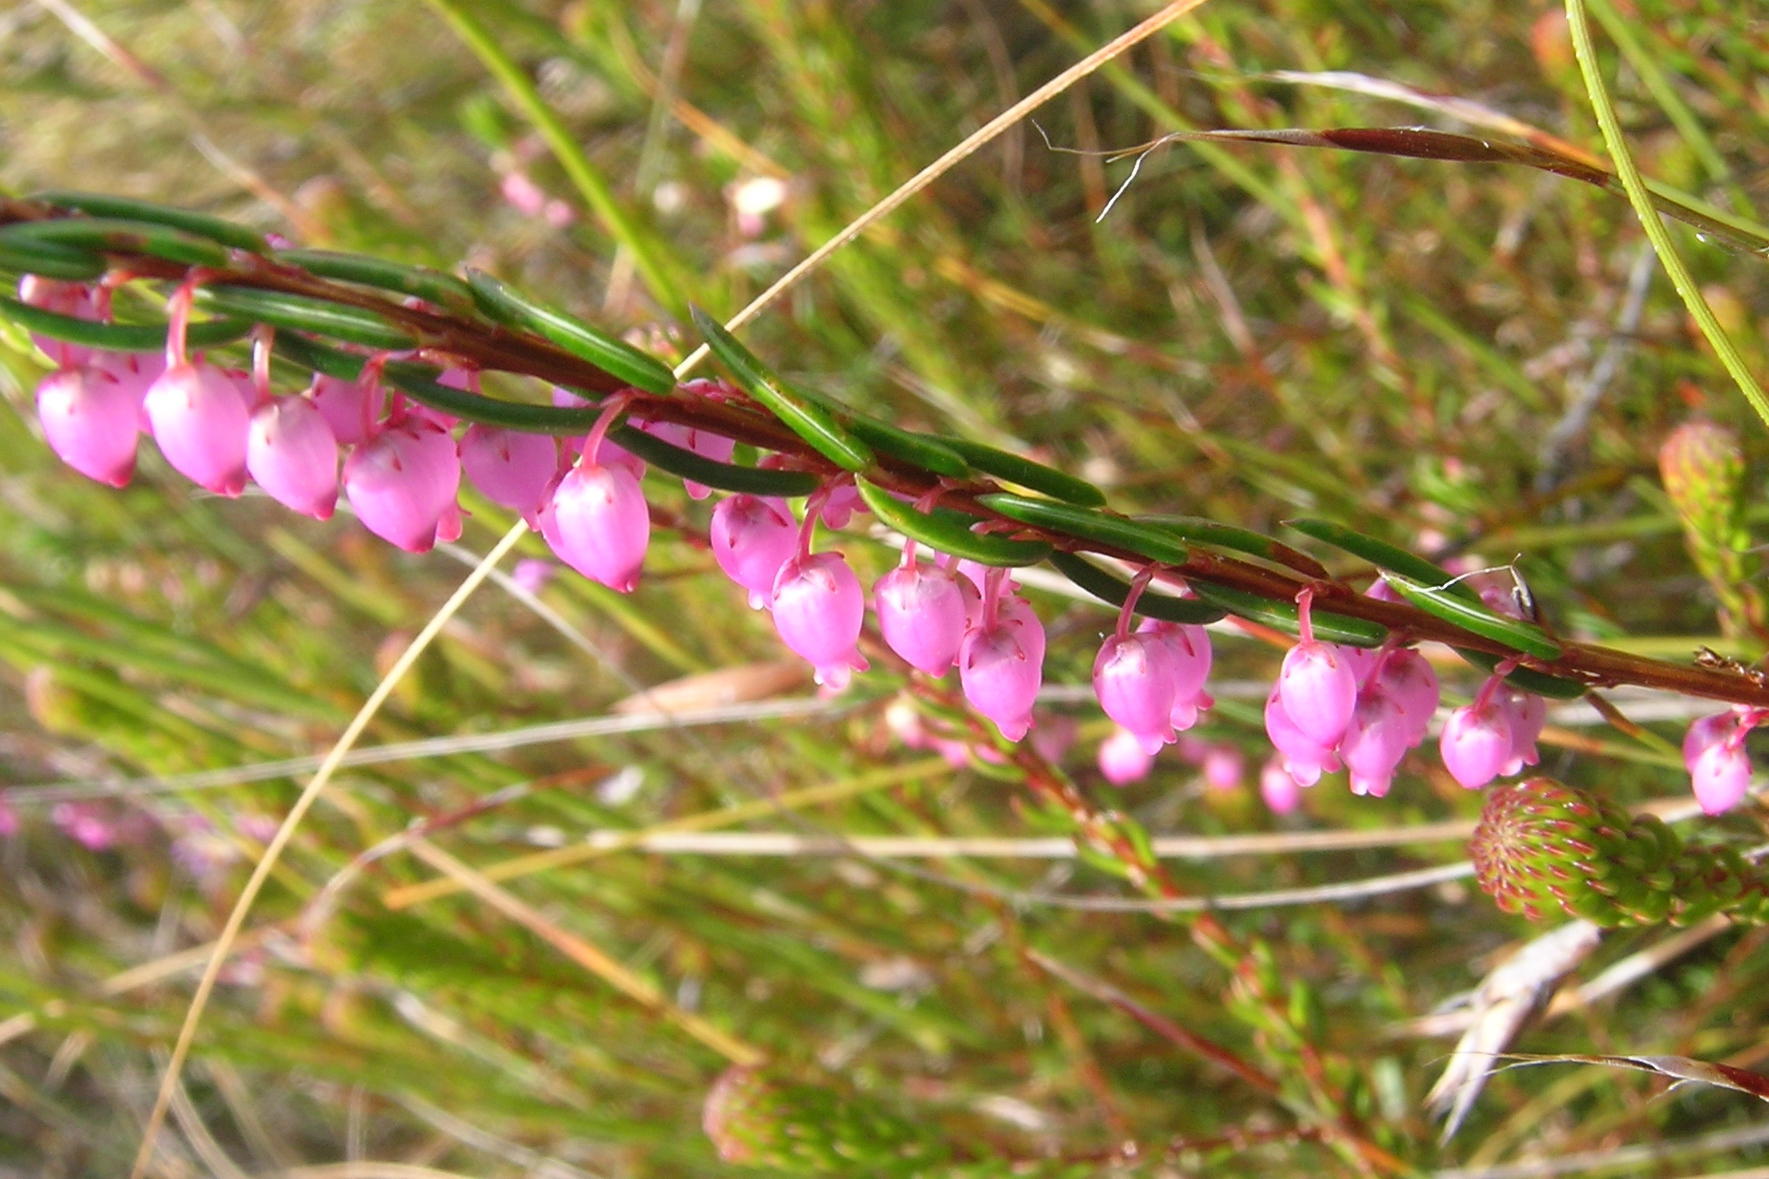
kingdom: Plantae
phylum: Tracheophyta
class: Magnoliopsida
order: Ericales
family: Ericaceae
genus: Erica
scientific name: Erica regerminans
